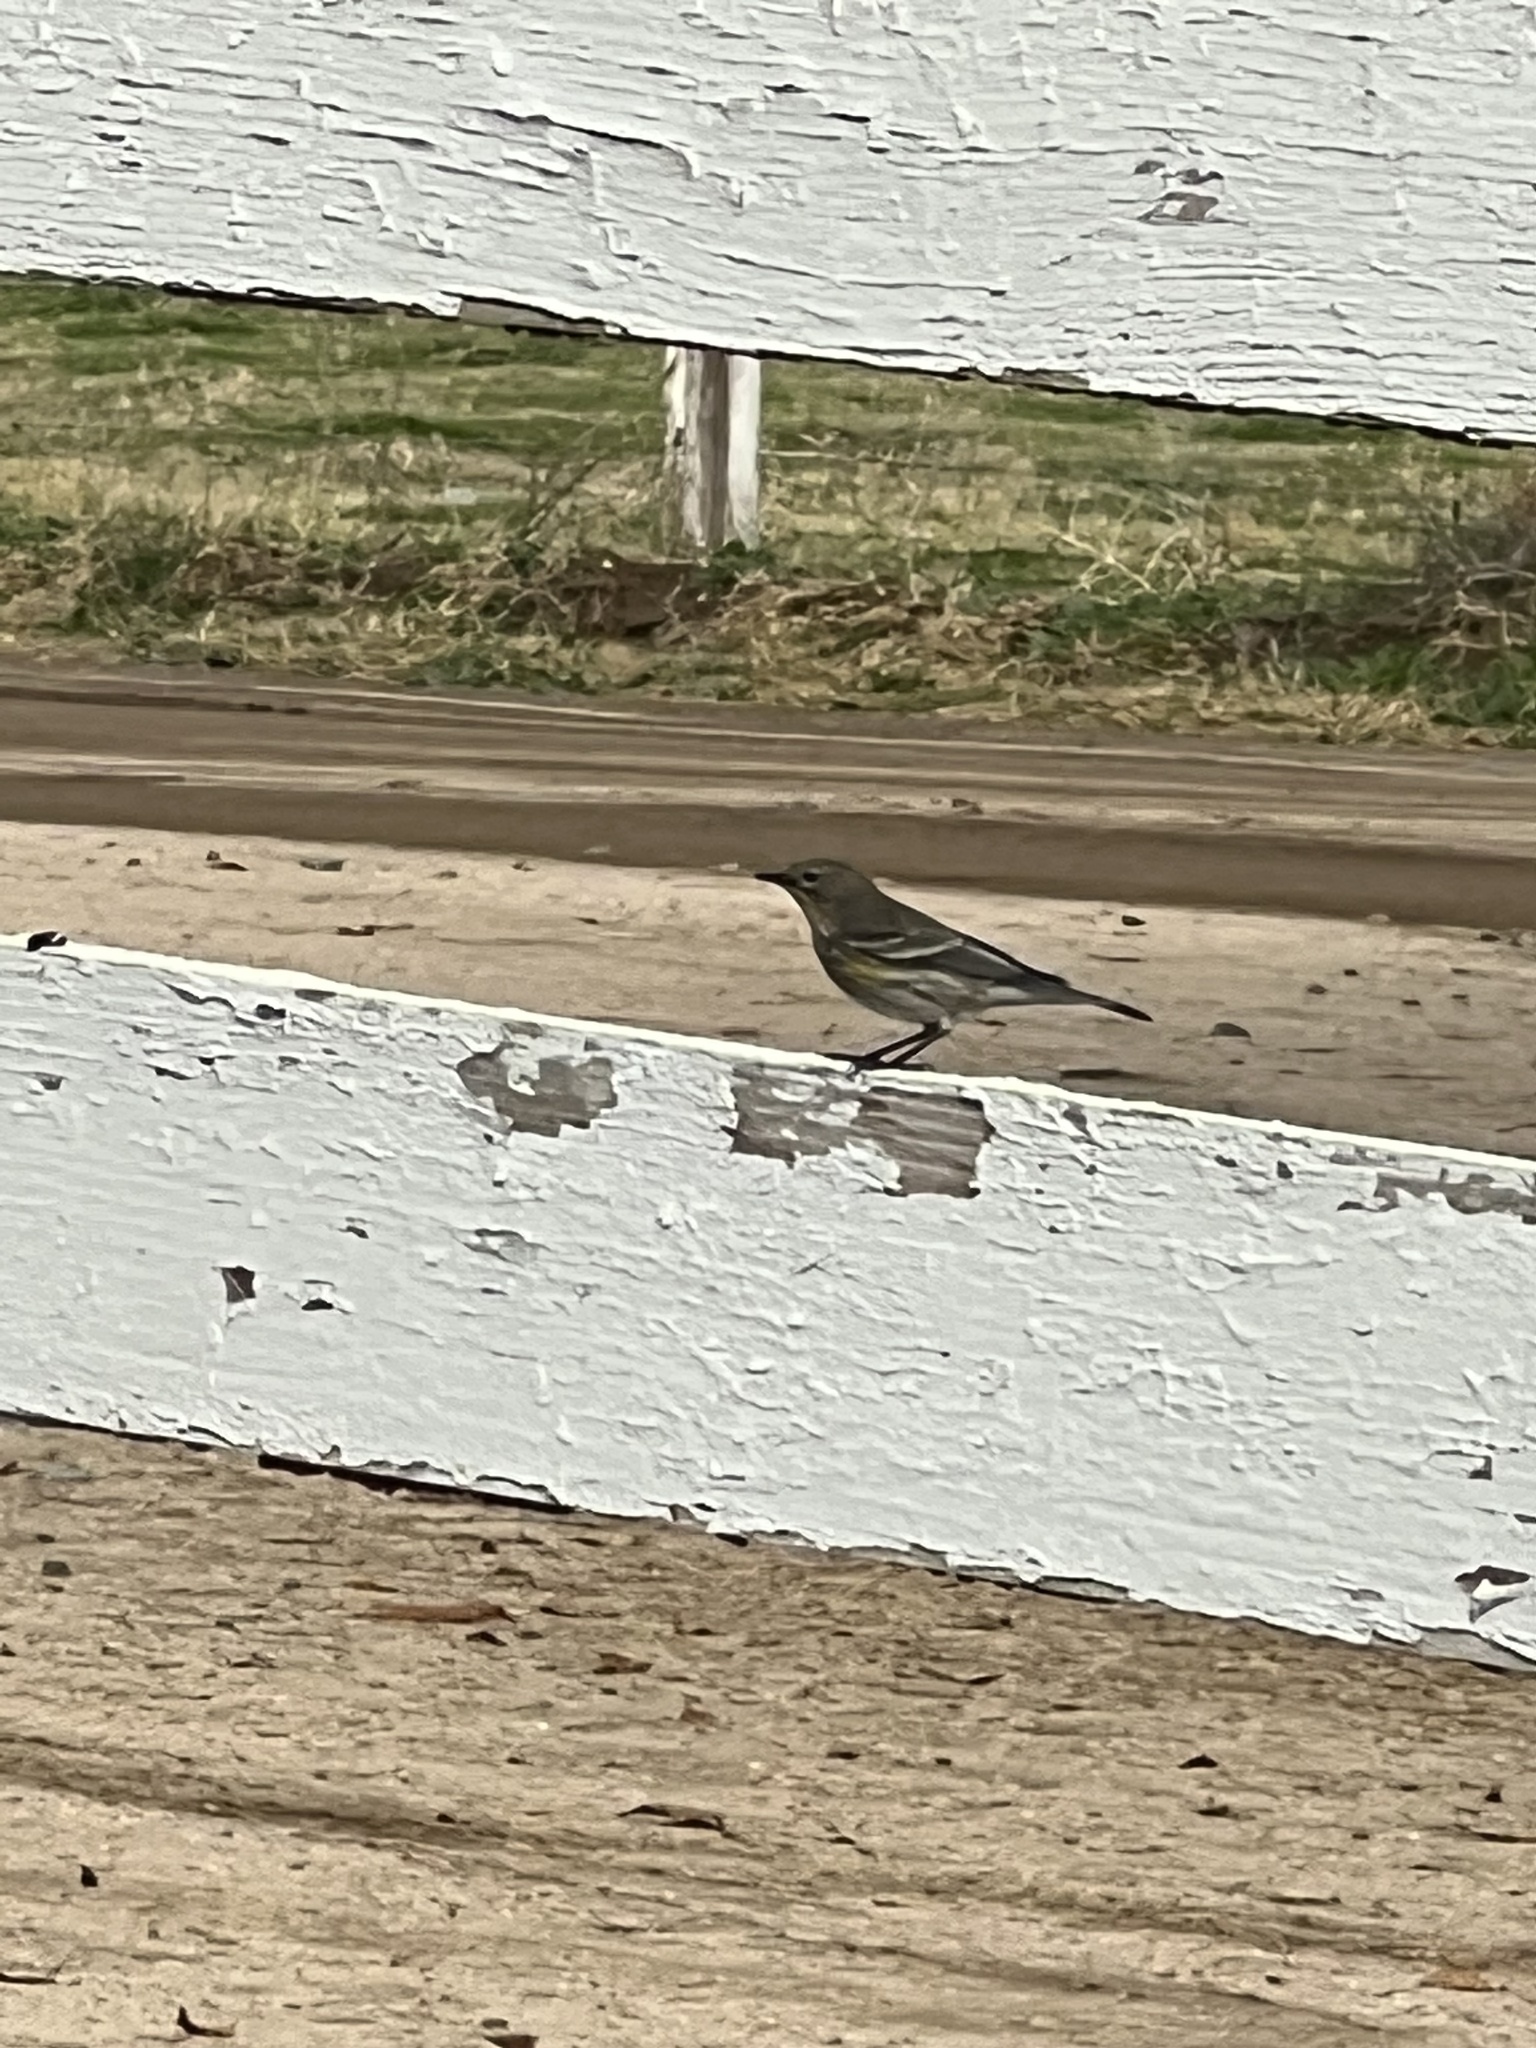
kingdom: Animalia
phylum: Chordata
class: Aves
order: Passeriformes
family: Parulidae
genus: Setophaga
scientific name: Setophaga coronata
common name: Myrtle warbler
